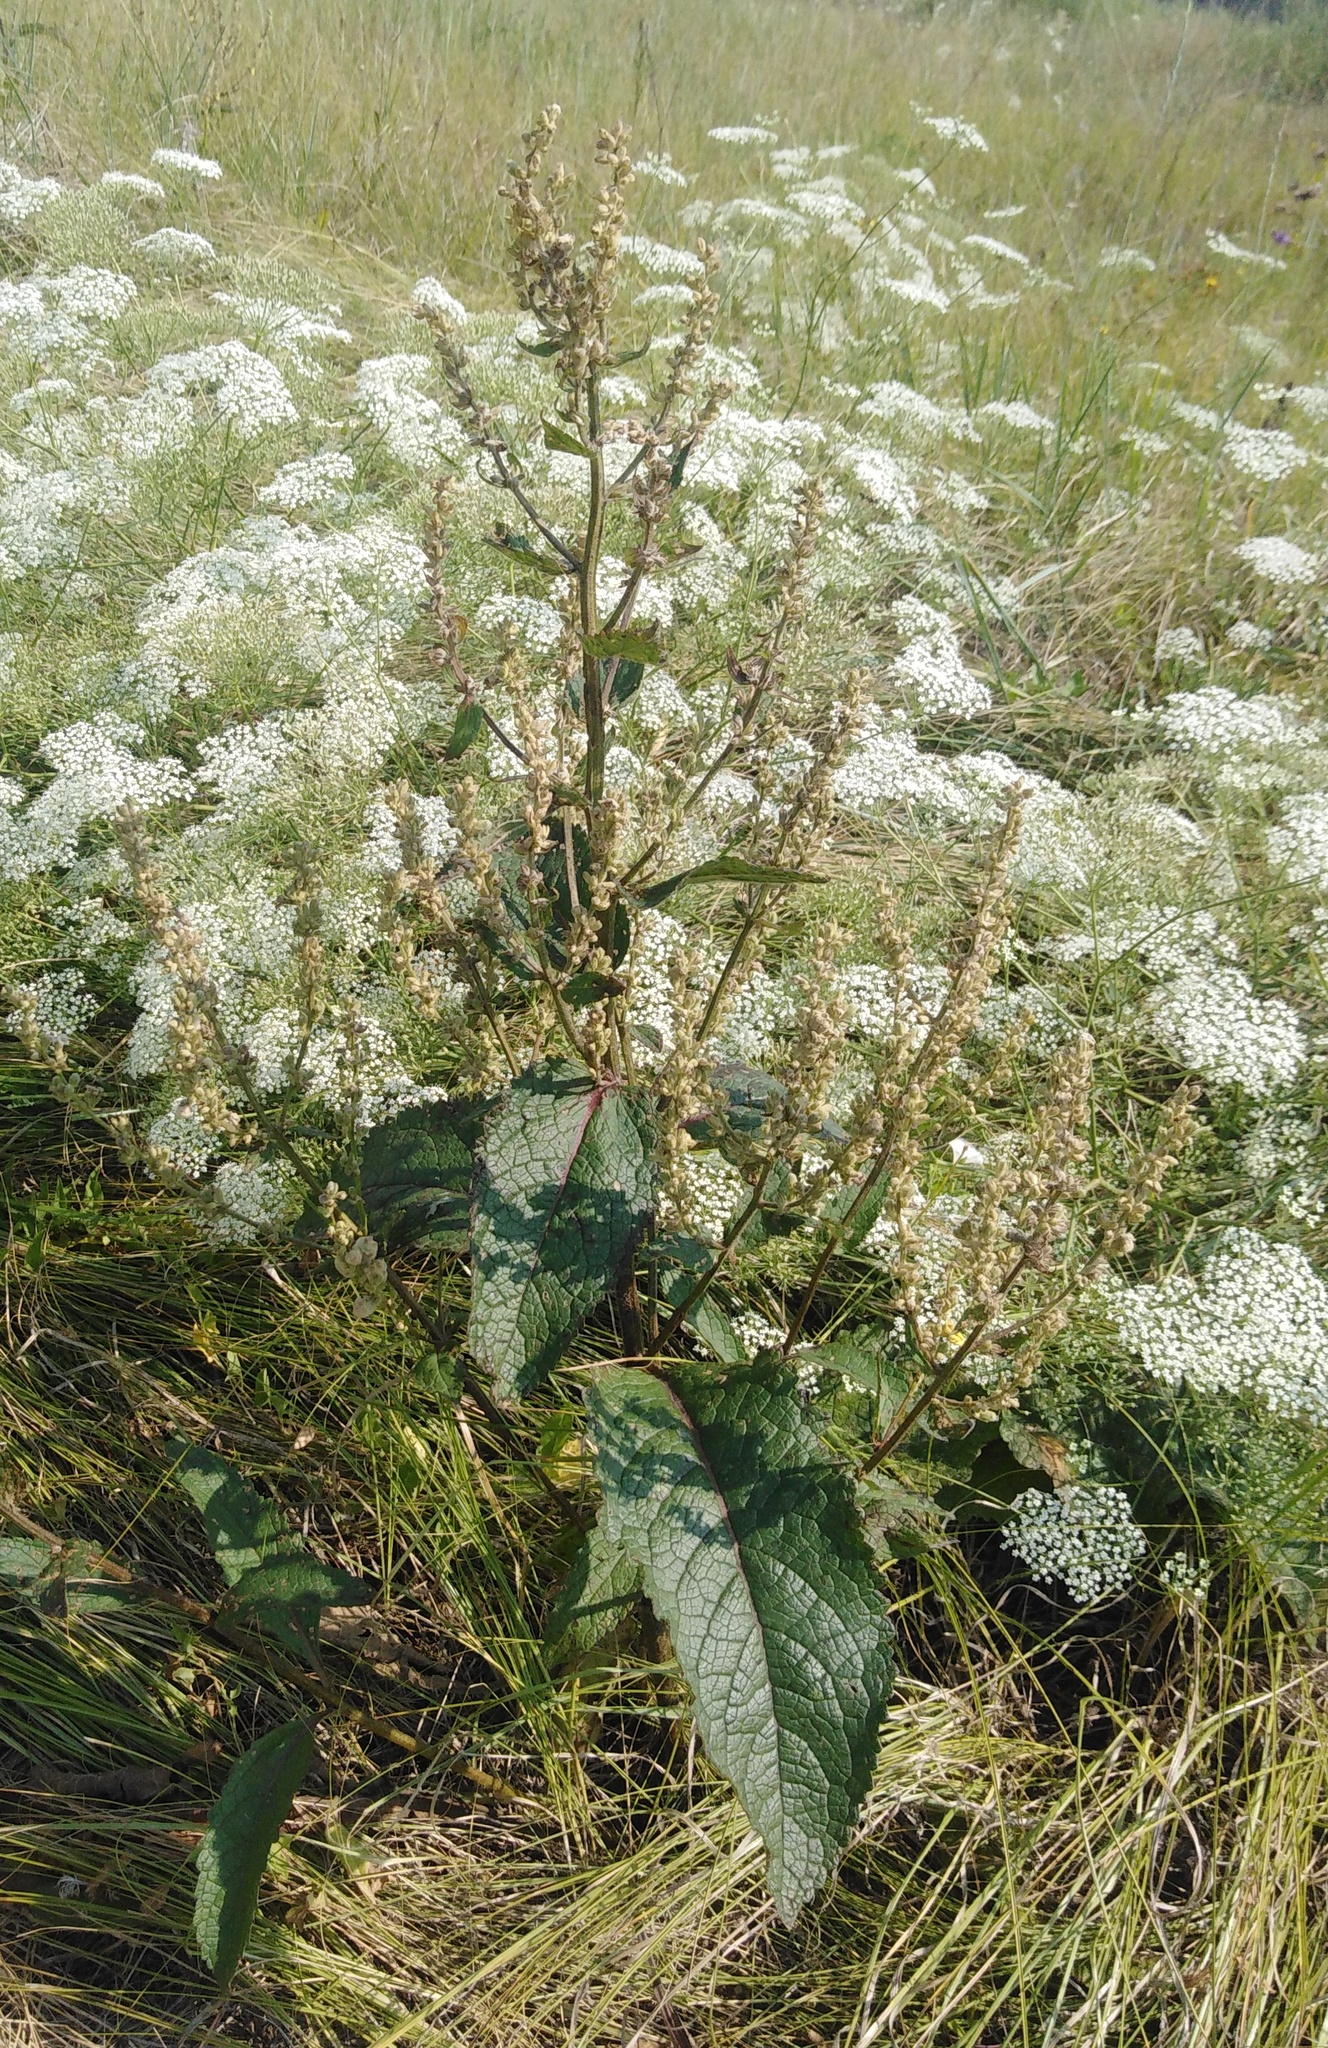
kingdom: Plantae
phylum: Tracheophyta
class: Magnoliopsida
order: Lamiales
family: Scrophulariaceae
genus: Verbascum
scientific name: Verbascum chaixii
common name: Nettle-leaved mullein
